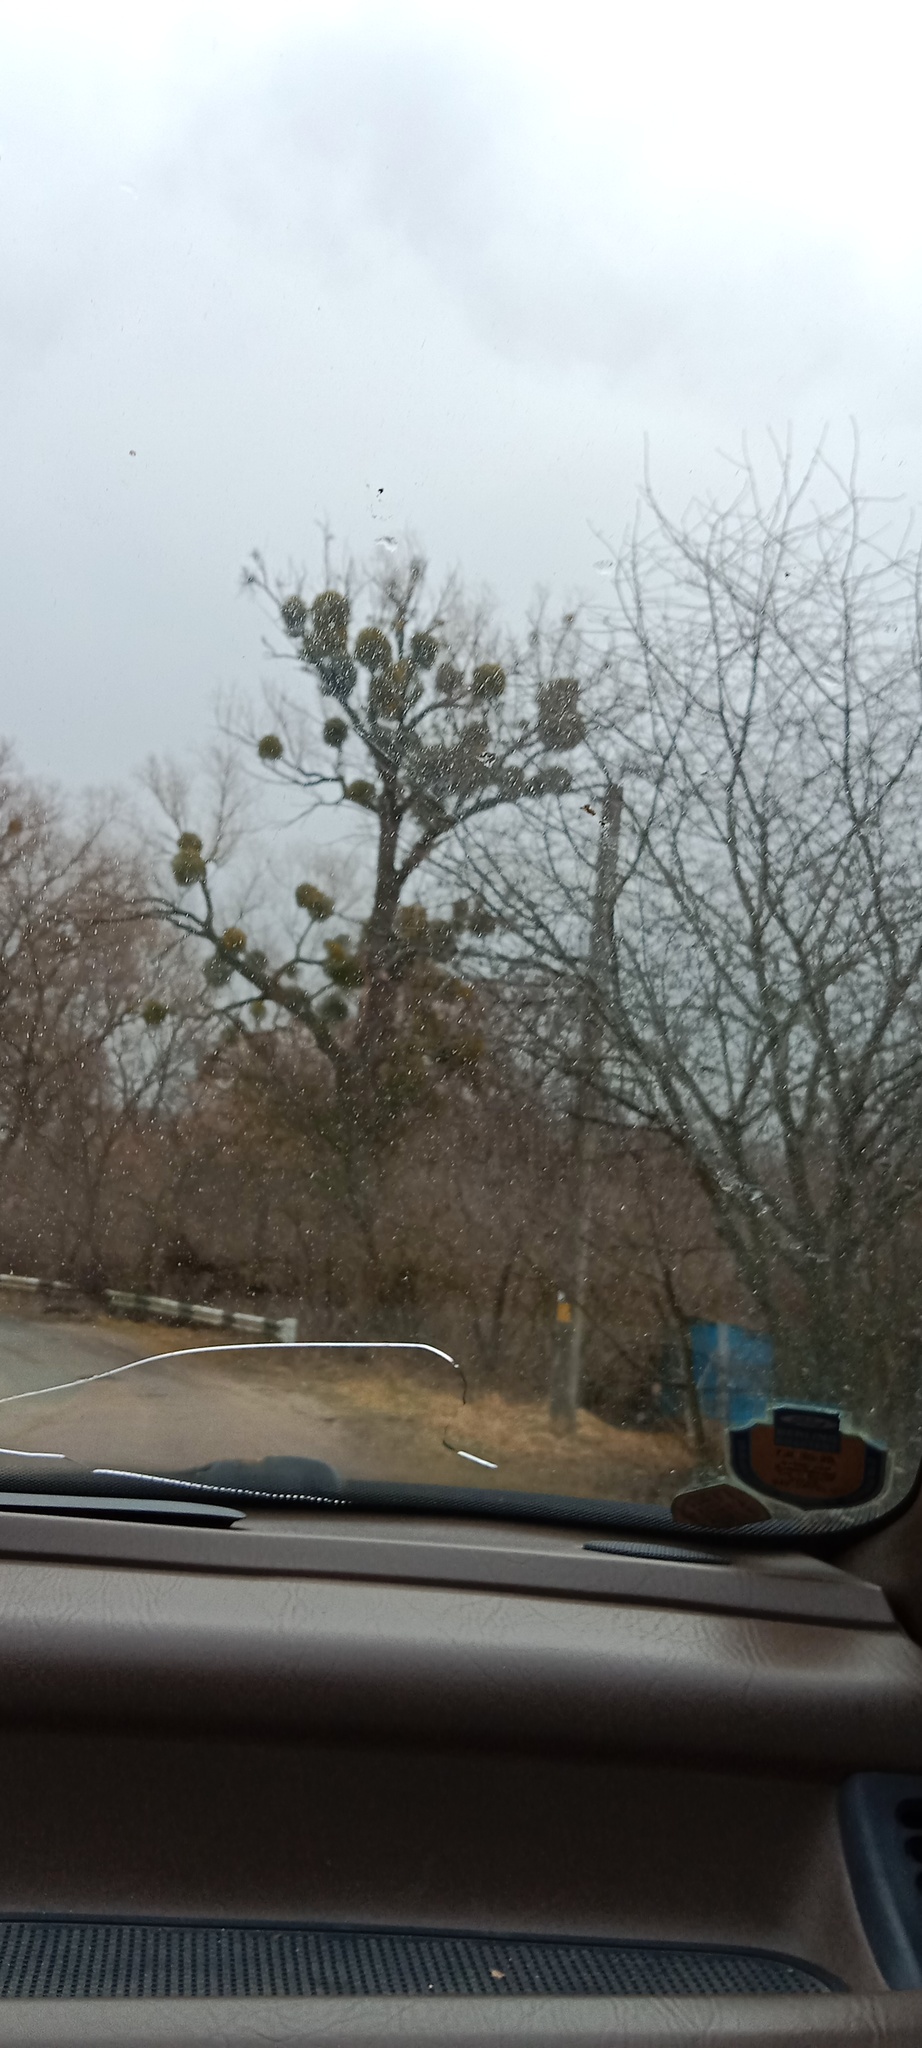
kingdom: Plantae
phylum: Tracheophyta
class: Magnoliopsida
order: Santalales
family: Viscaceae
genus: Viscum
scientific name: Viscum album
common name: Mistletoe
